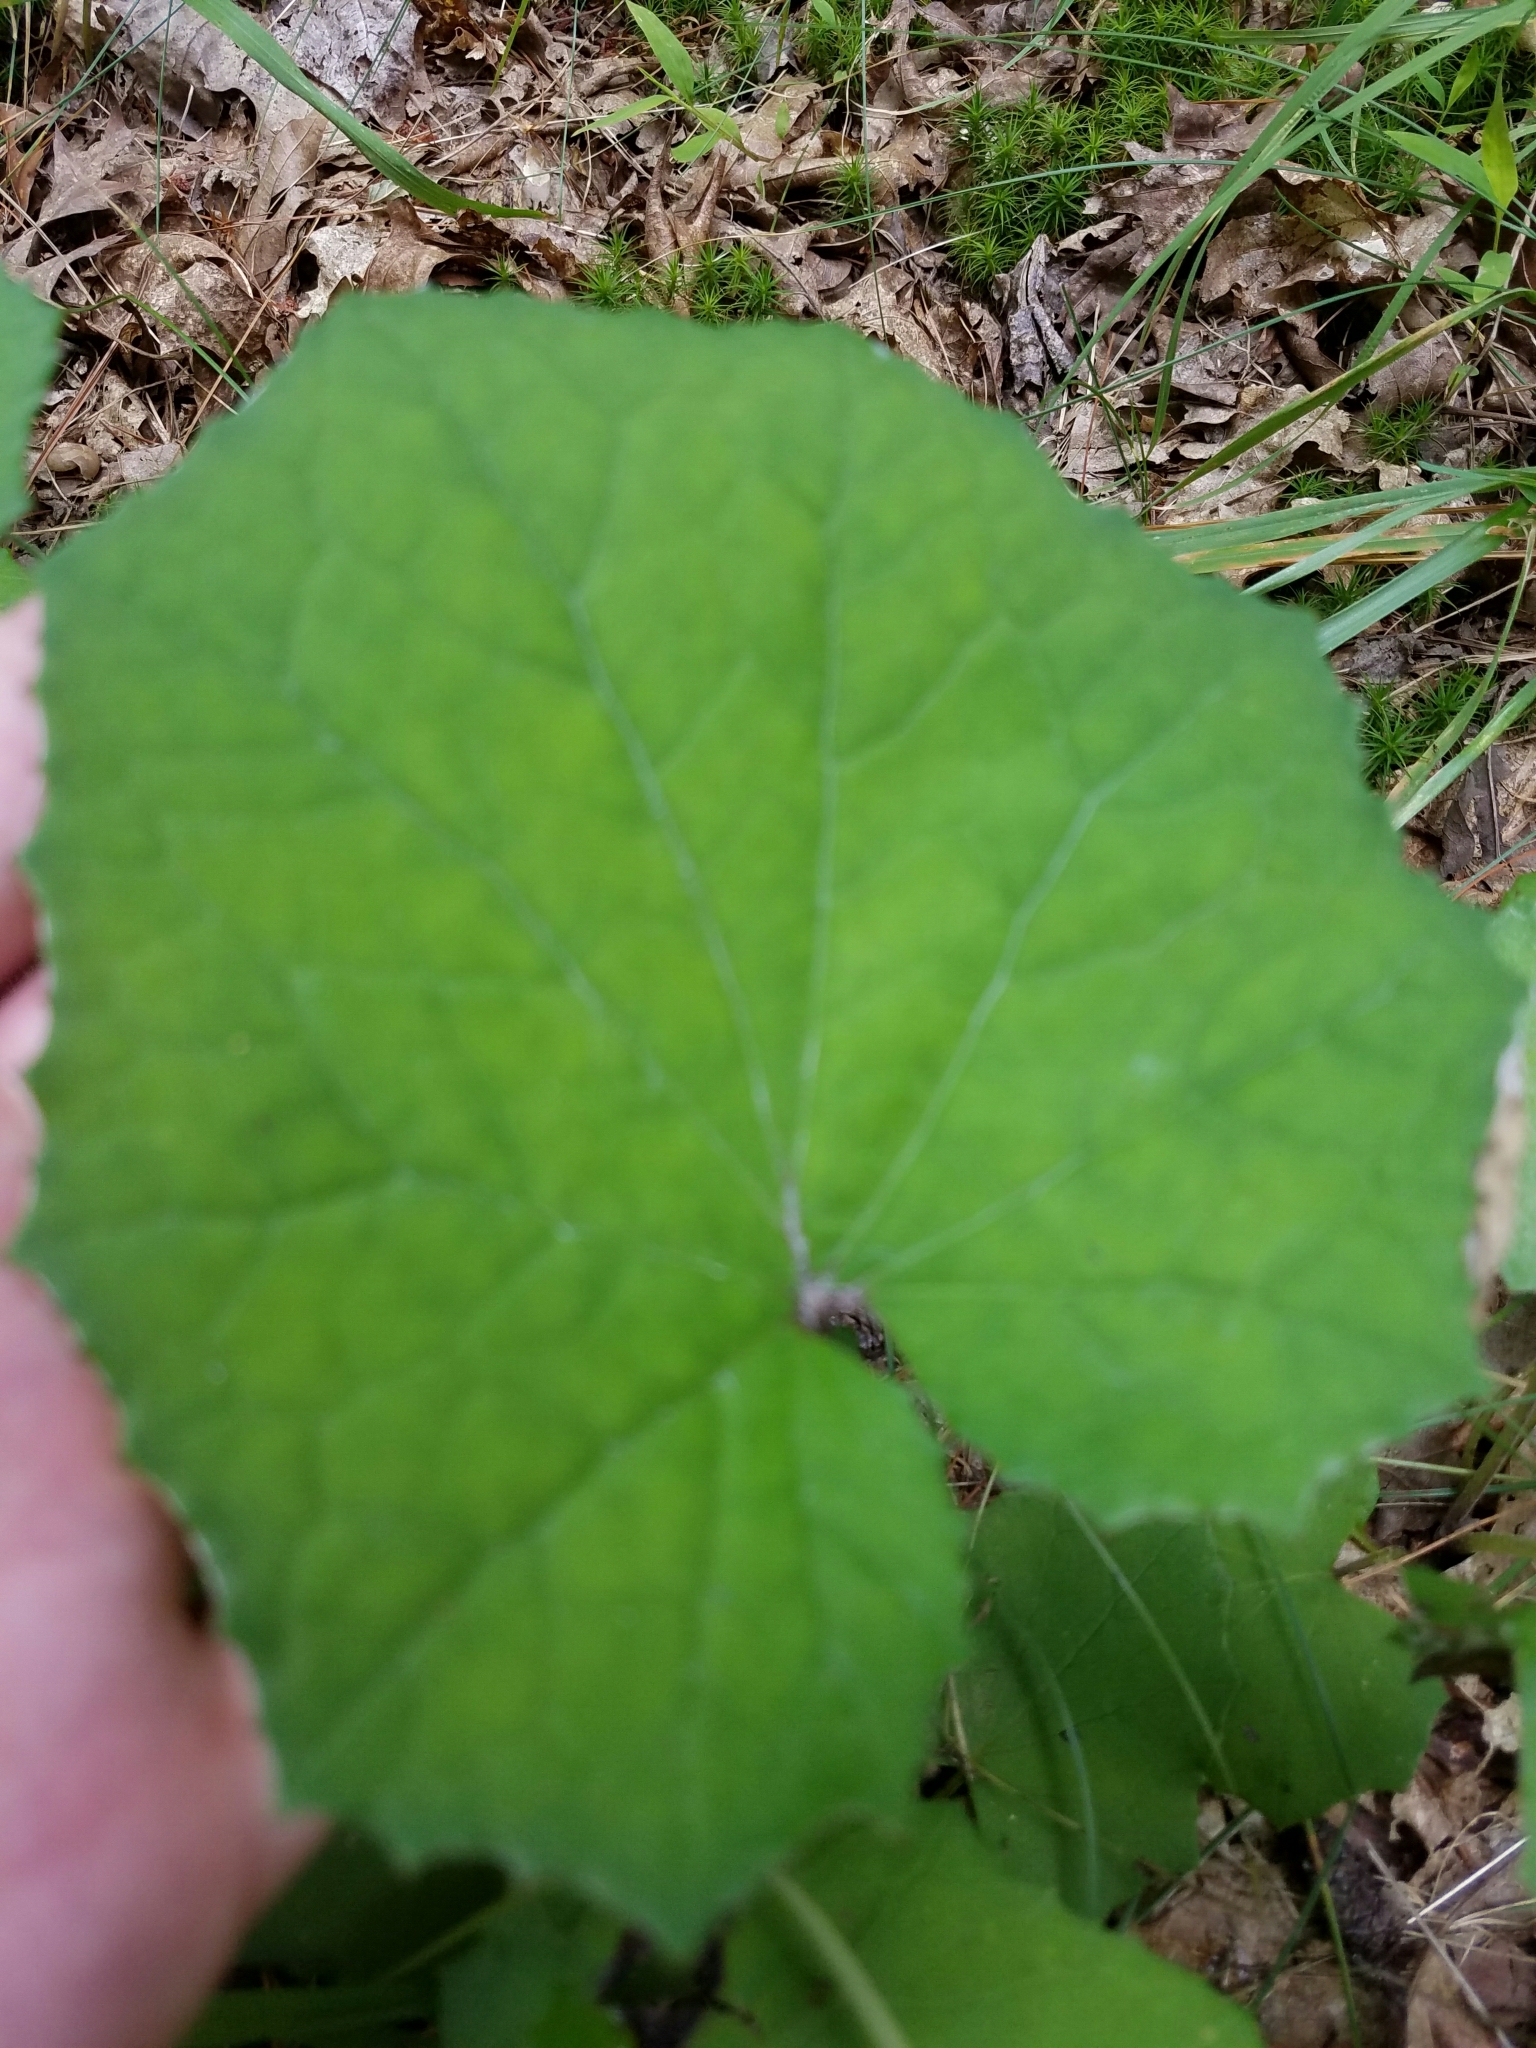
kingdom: Plantae
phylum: Tracheophyta
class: Magnoliopsida
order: Asterales
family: Asteraceae
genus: Tussilago
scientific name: Tussilago farfara
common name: Coltsfoot
